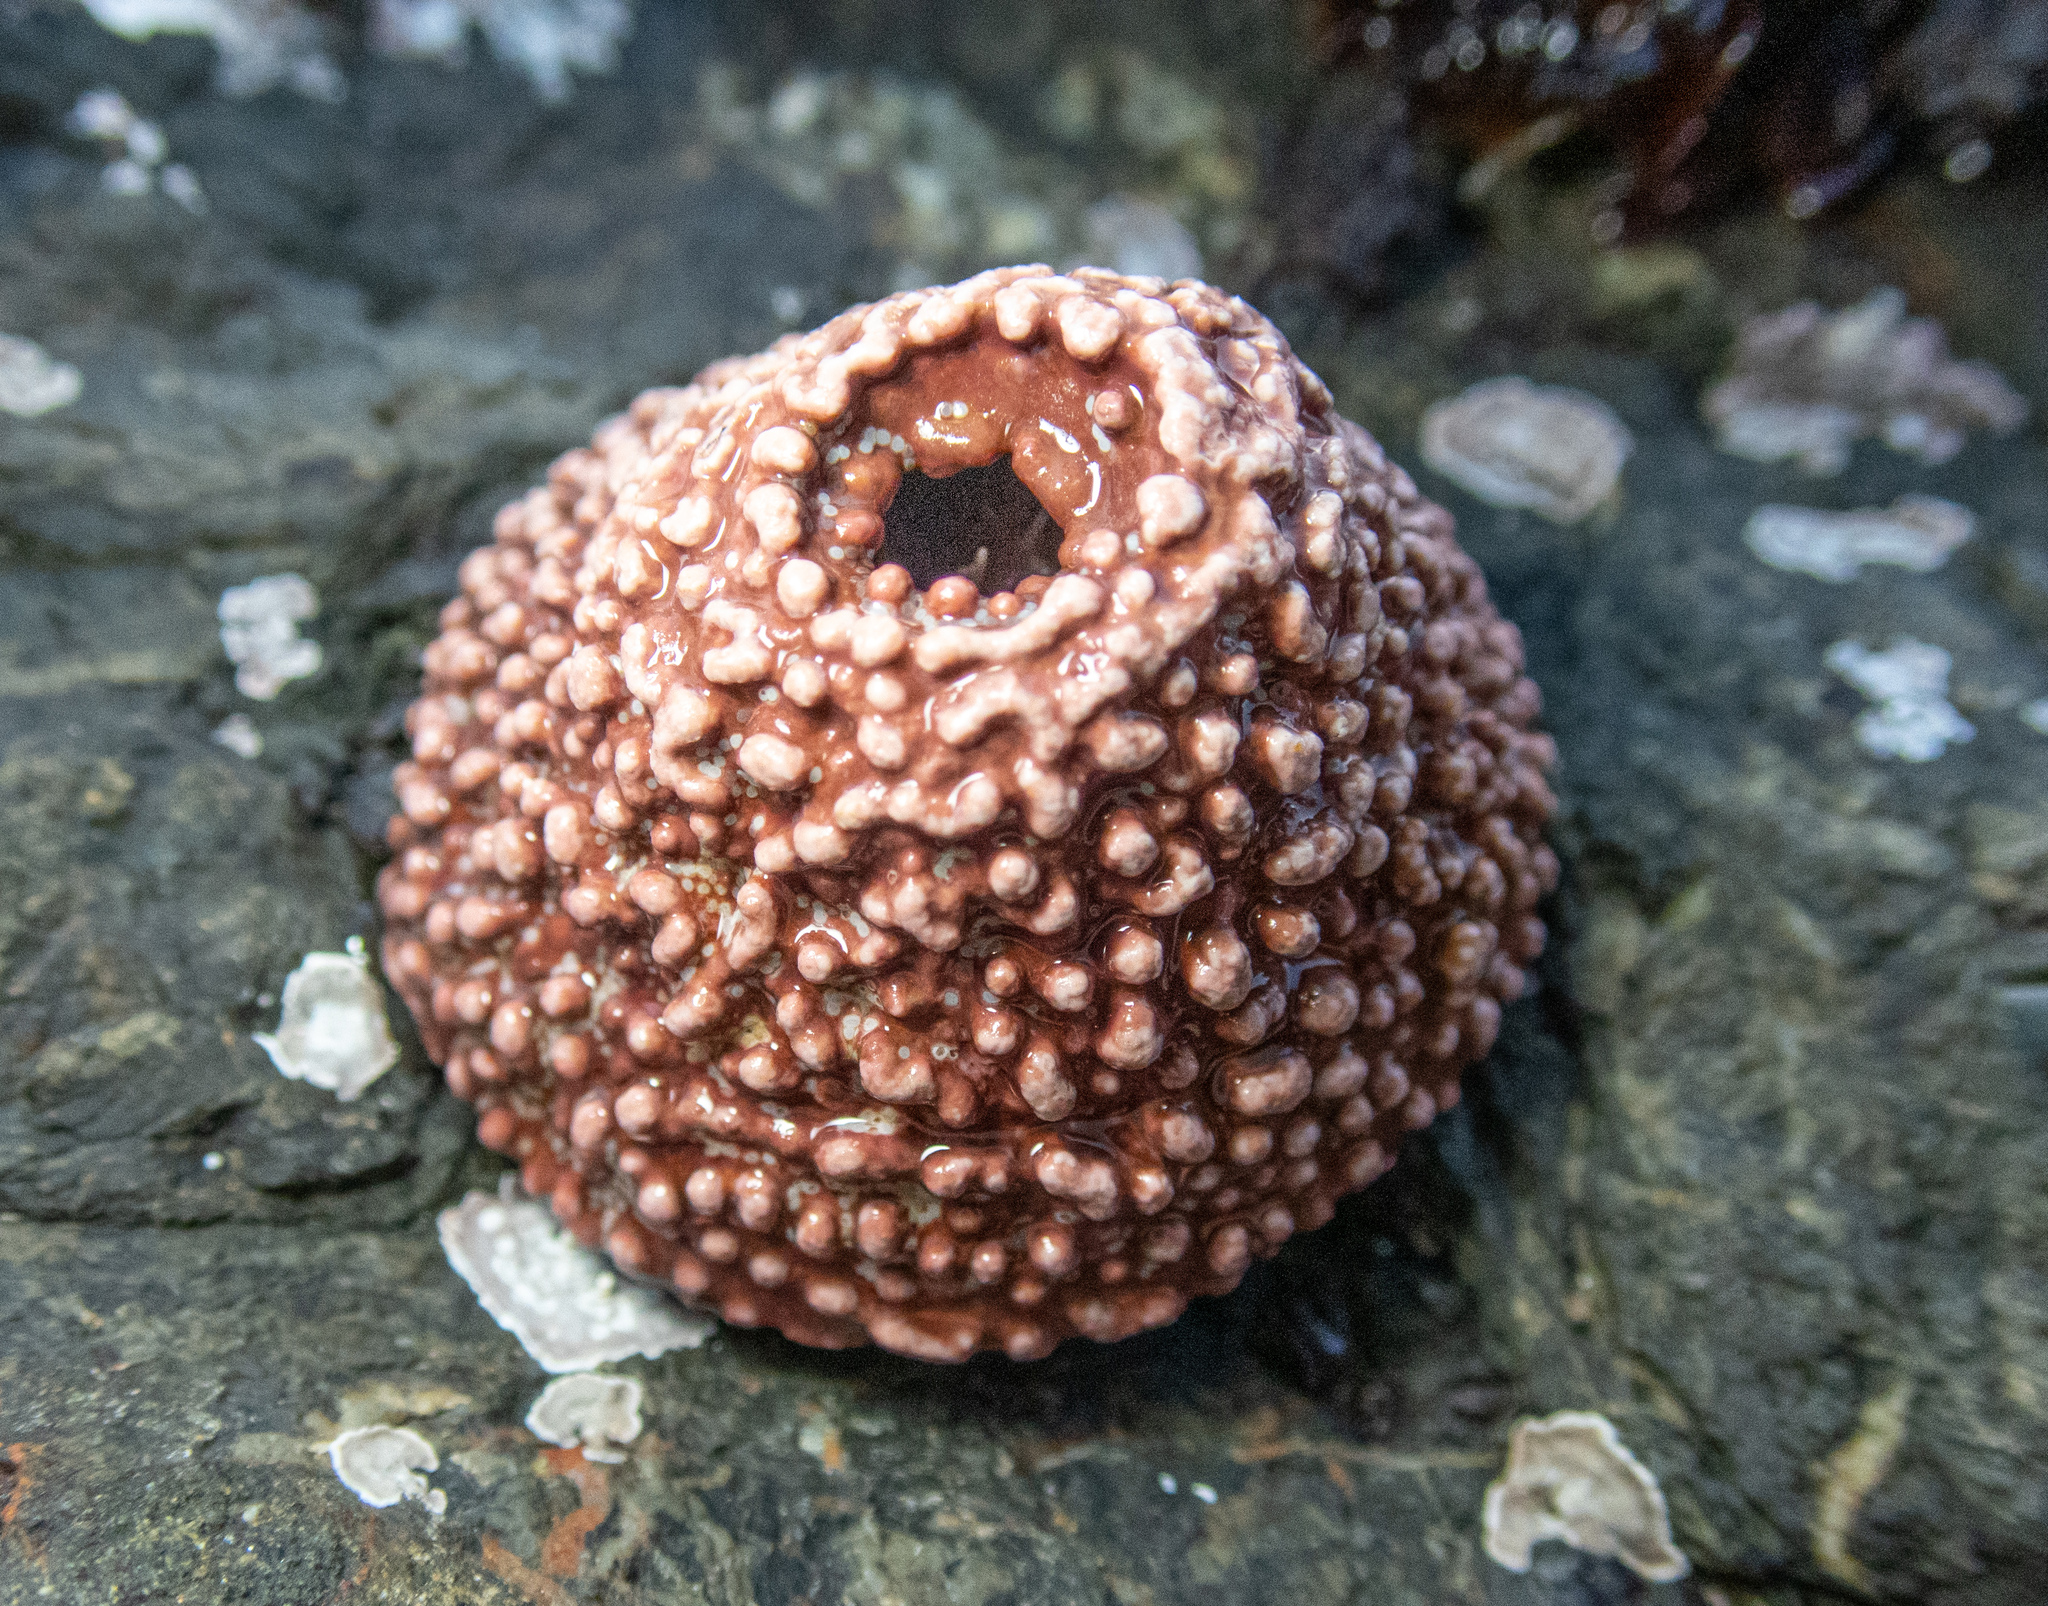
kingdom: Animalia
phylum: Mollusca
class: Gastropoda
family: Acmaeidae
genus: Acmaea
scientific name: Acmaea mitra
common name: Pacific white cap limpet
